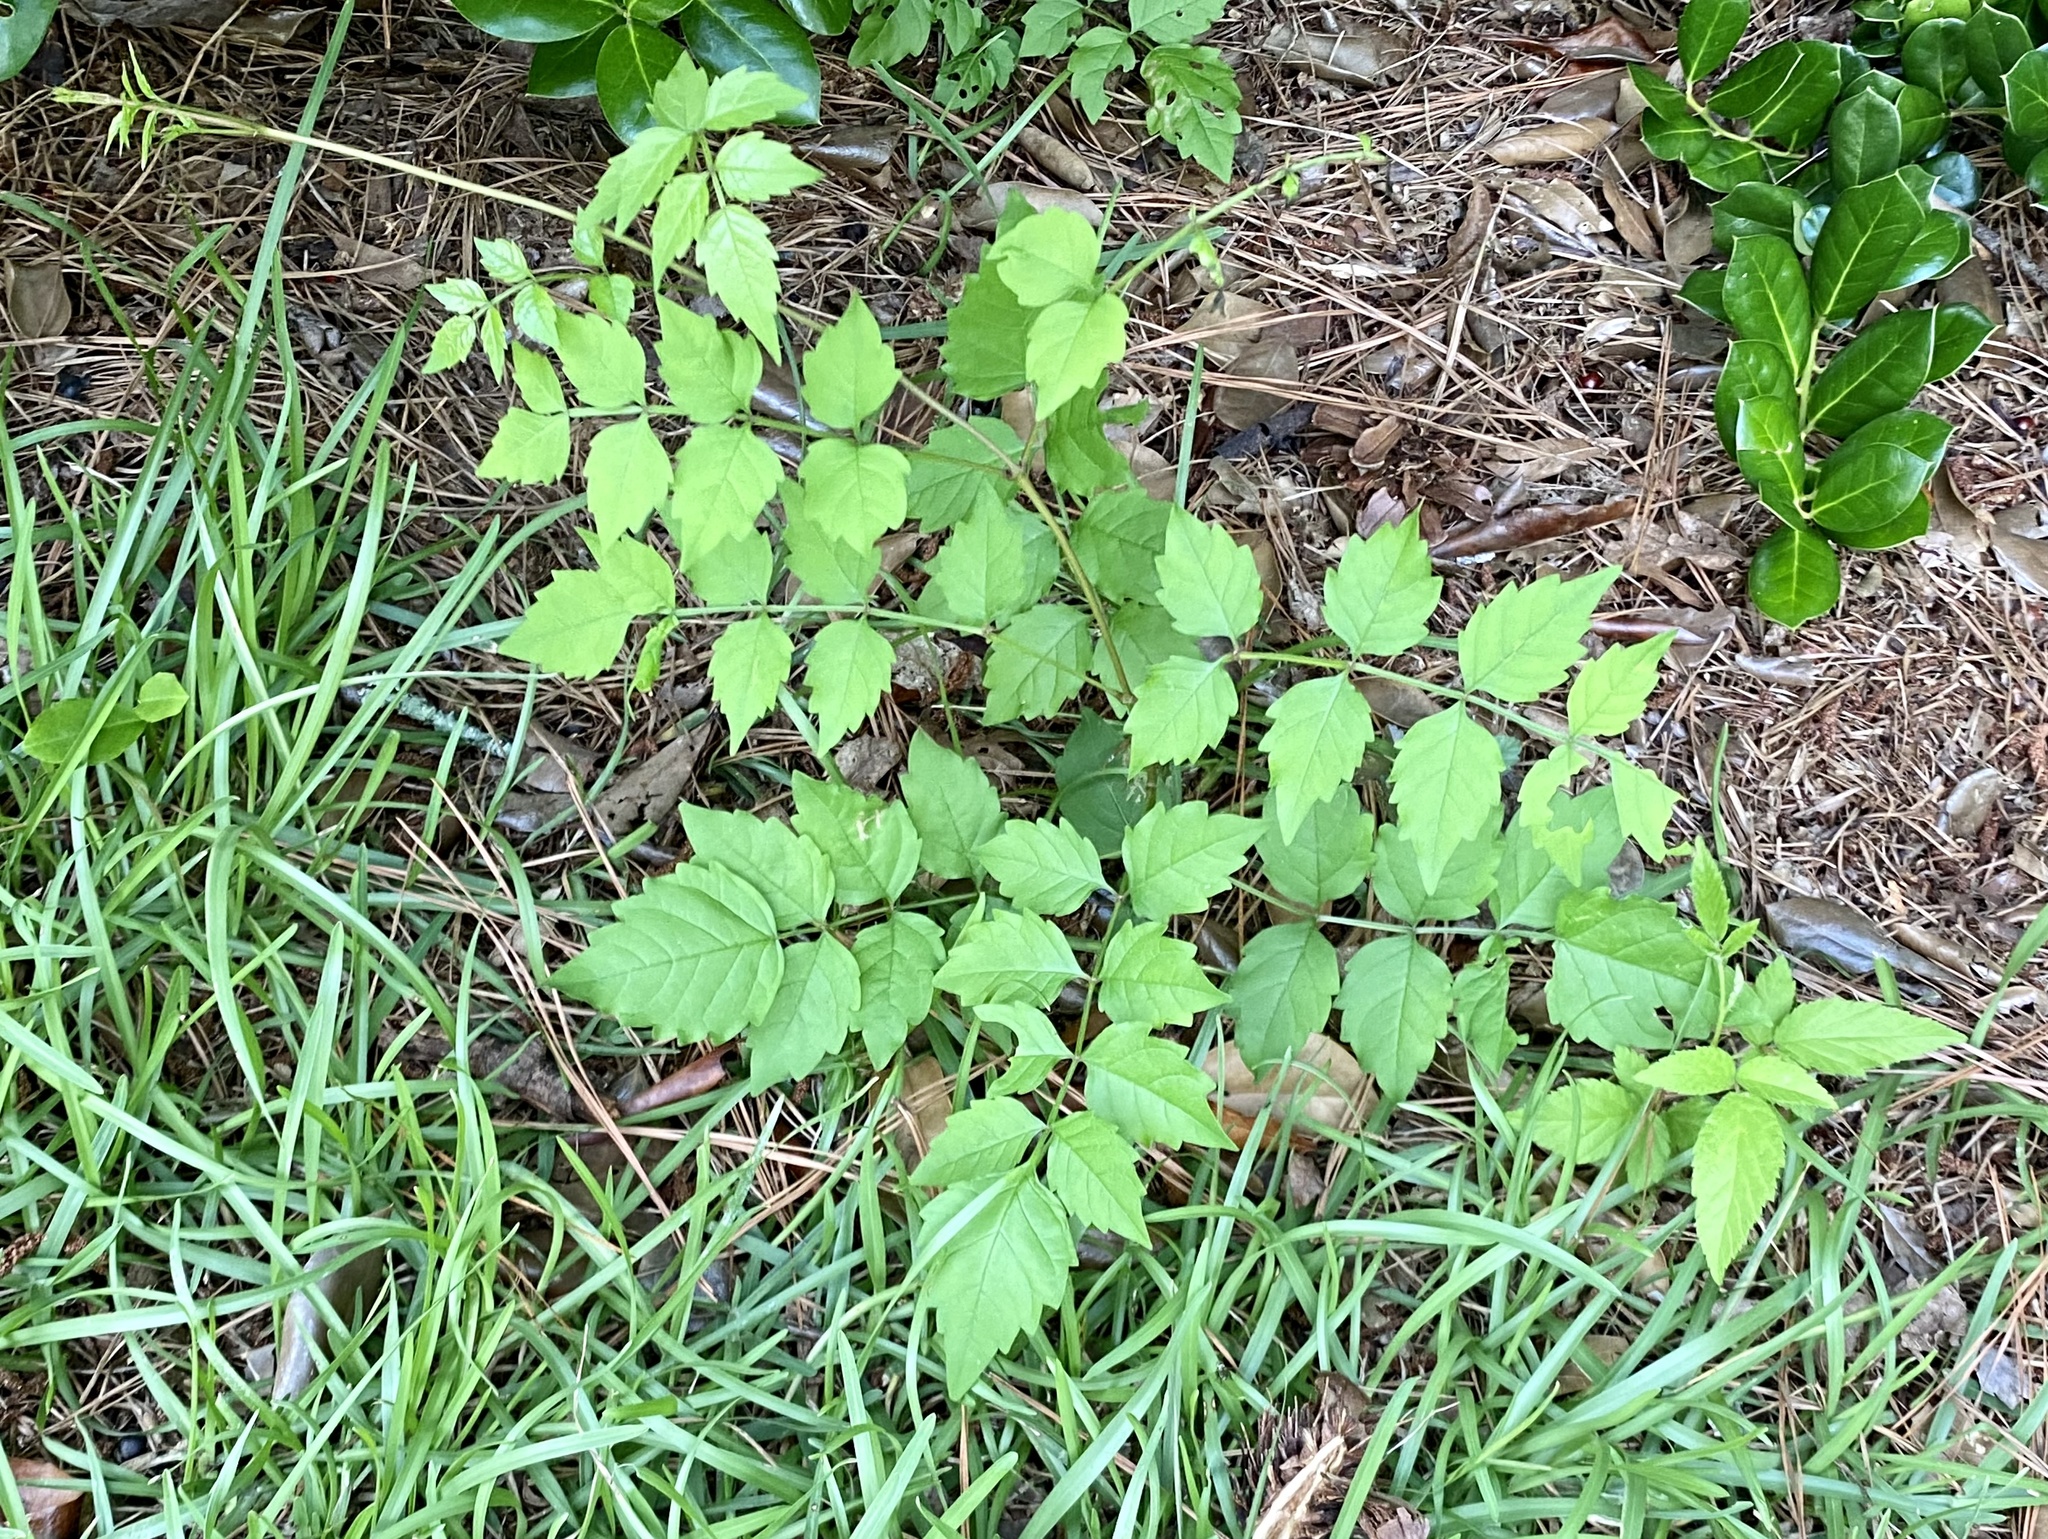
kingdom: Plantae
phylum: Tracheophyta
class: Magnoliopsida
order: Lamiales
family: Bignoniaceae
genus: Campsis
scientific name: Campsis radicans
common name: Trumpet-creeper
